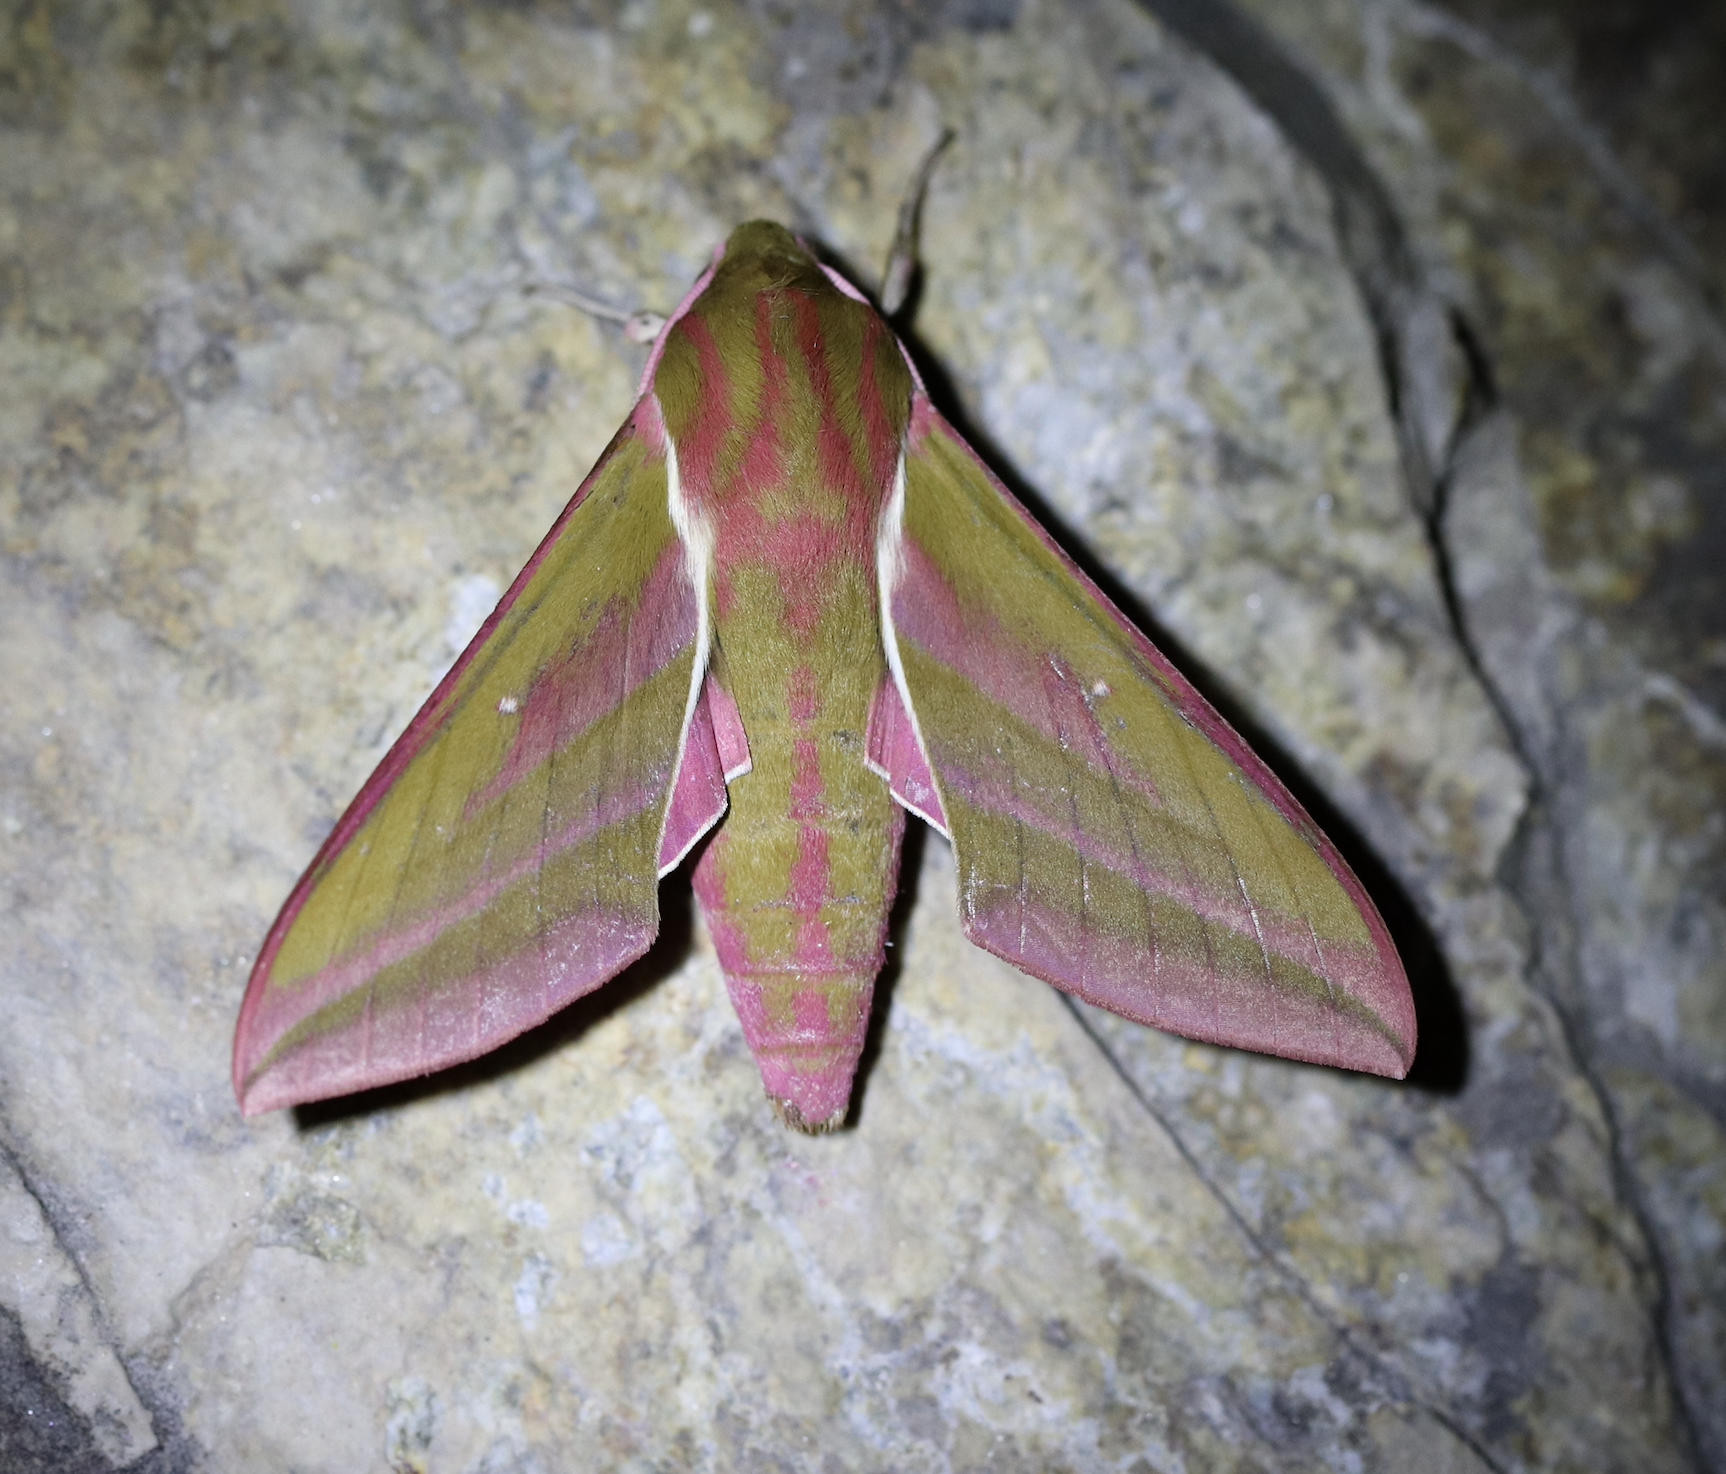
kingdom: Animalia
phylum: Arthropoda
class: Insecta
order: Lepidoptera
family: Sphingidae
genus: Deilephila
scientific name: Deilephila elpenor
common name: Elephant hawk-moth
